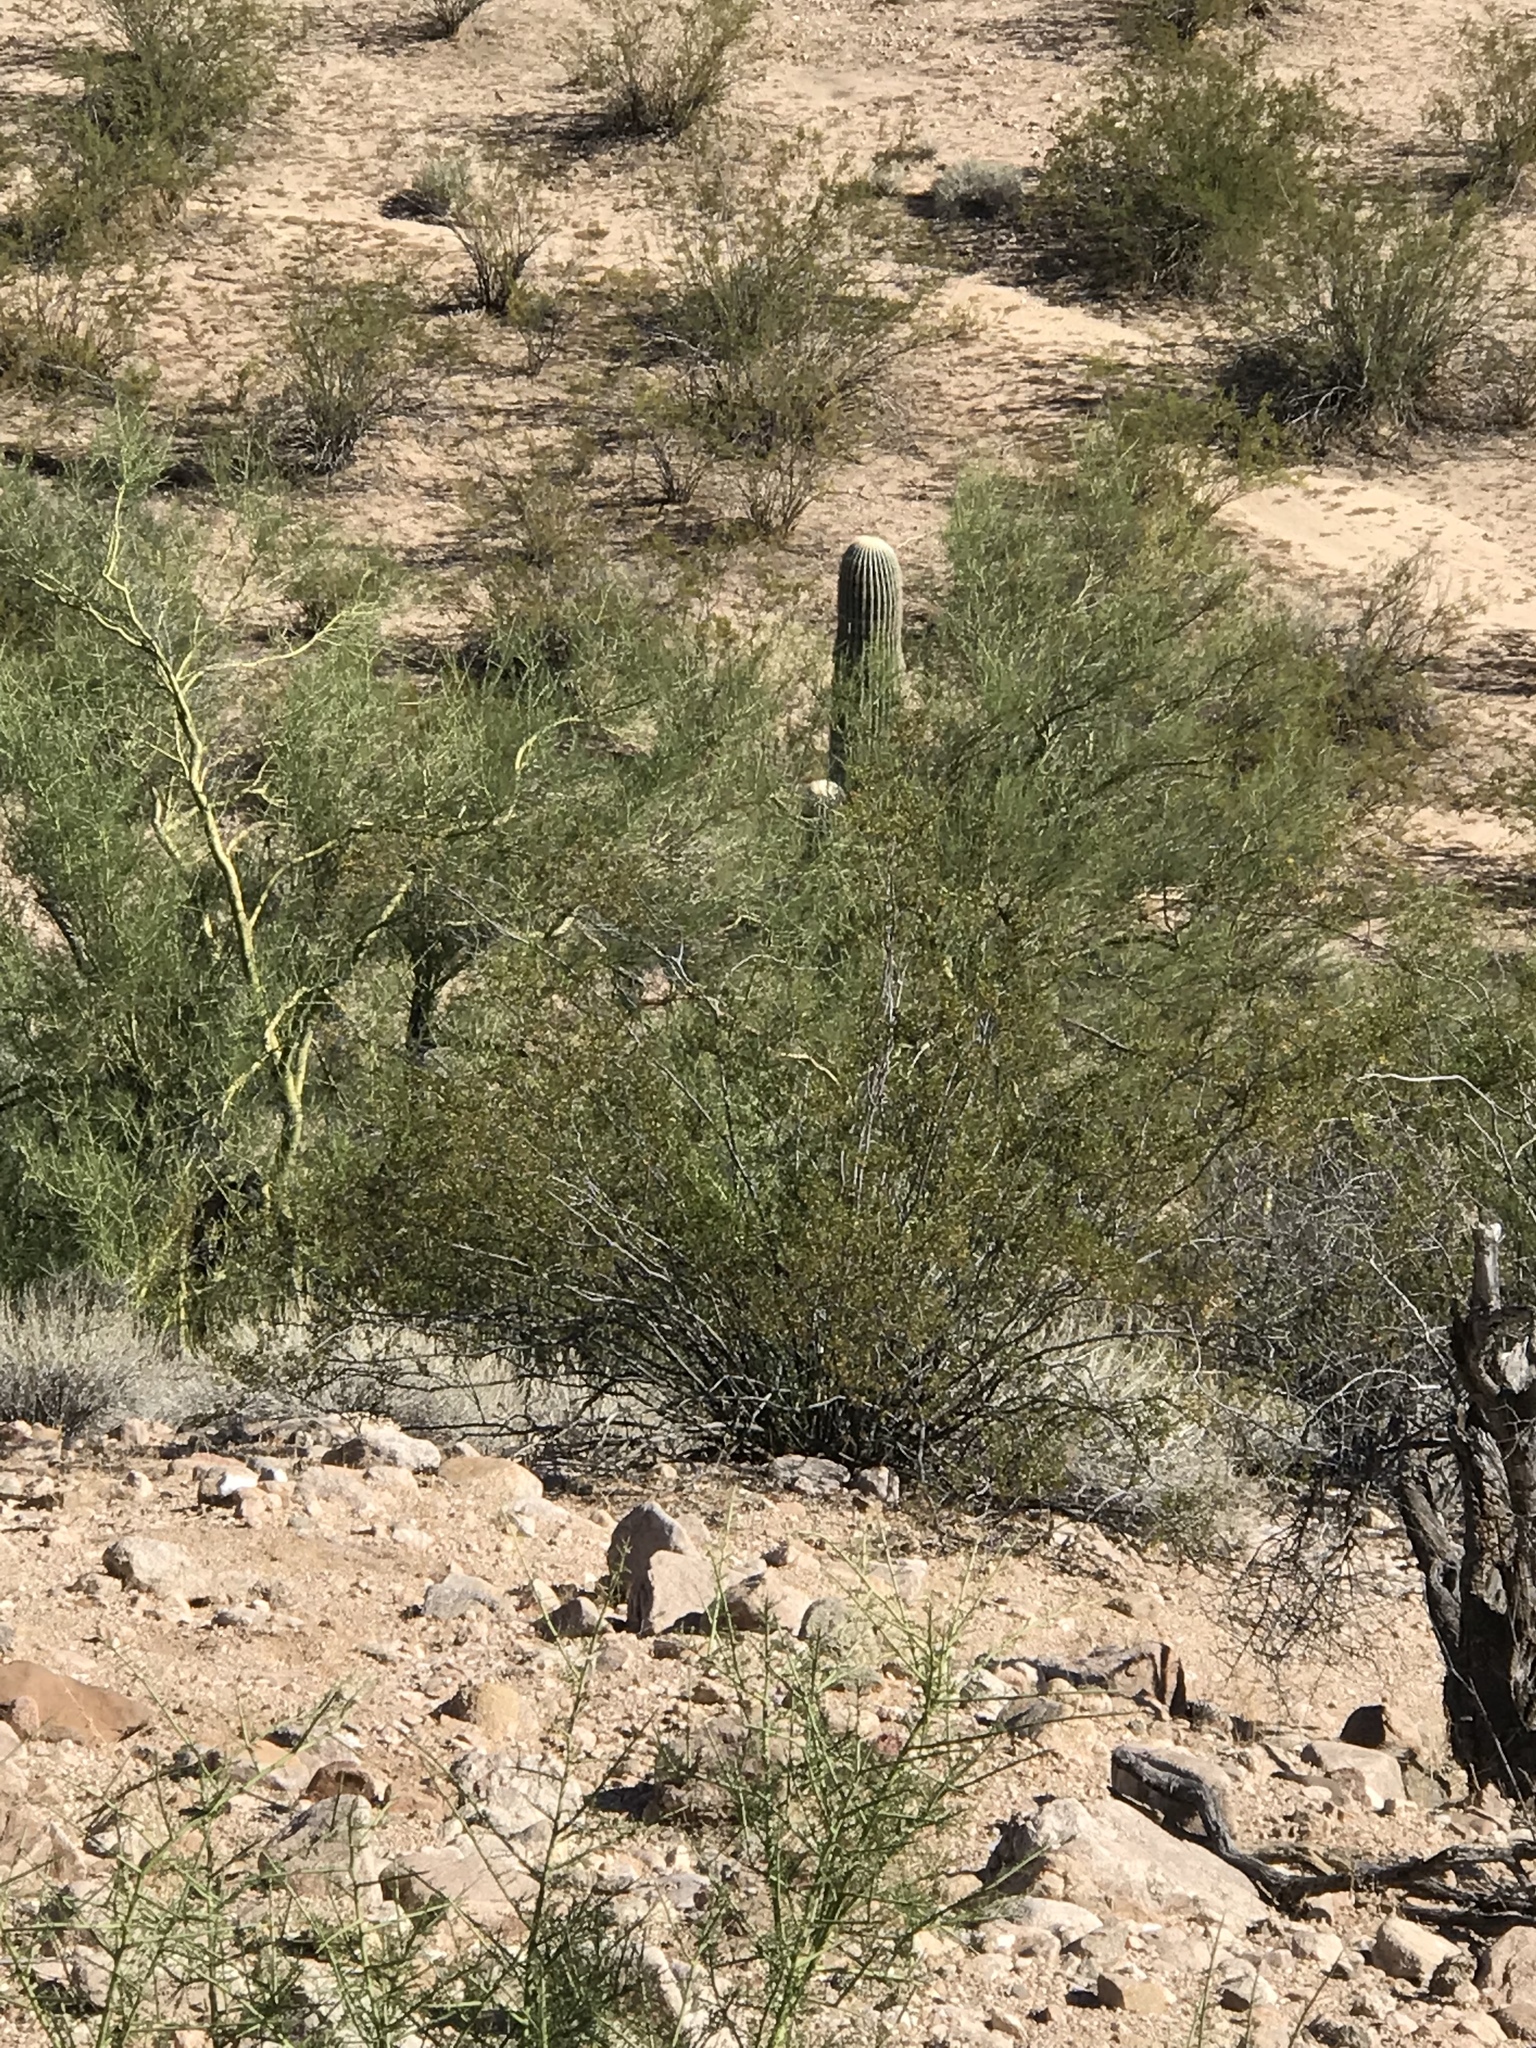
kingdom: Plantae
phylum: Tracheophyta
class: Magnoliopsida
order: Caryophyllales
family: Cactaceae
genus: Carnegiea
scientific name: Carnegiea gigantea
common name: Saguaro
